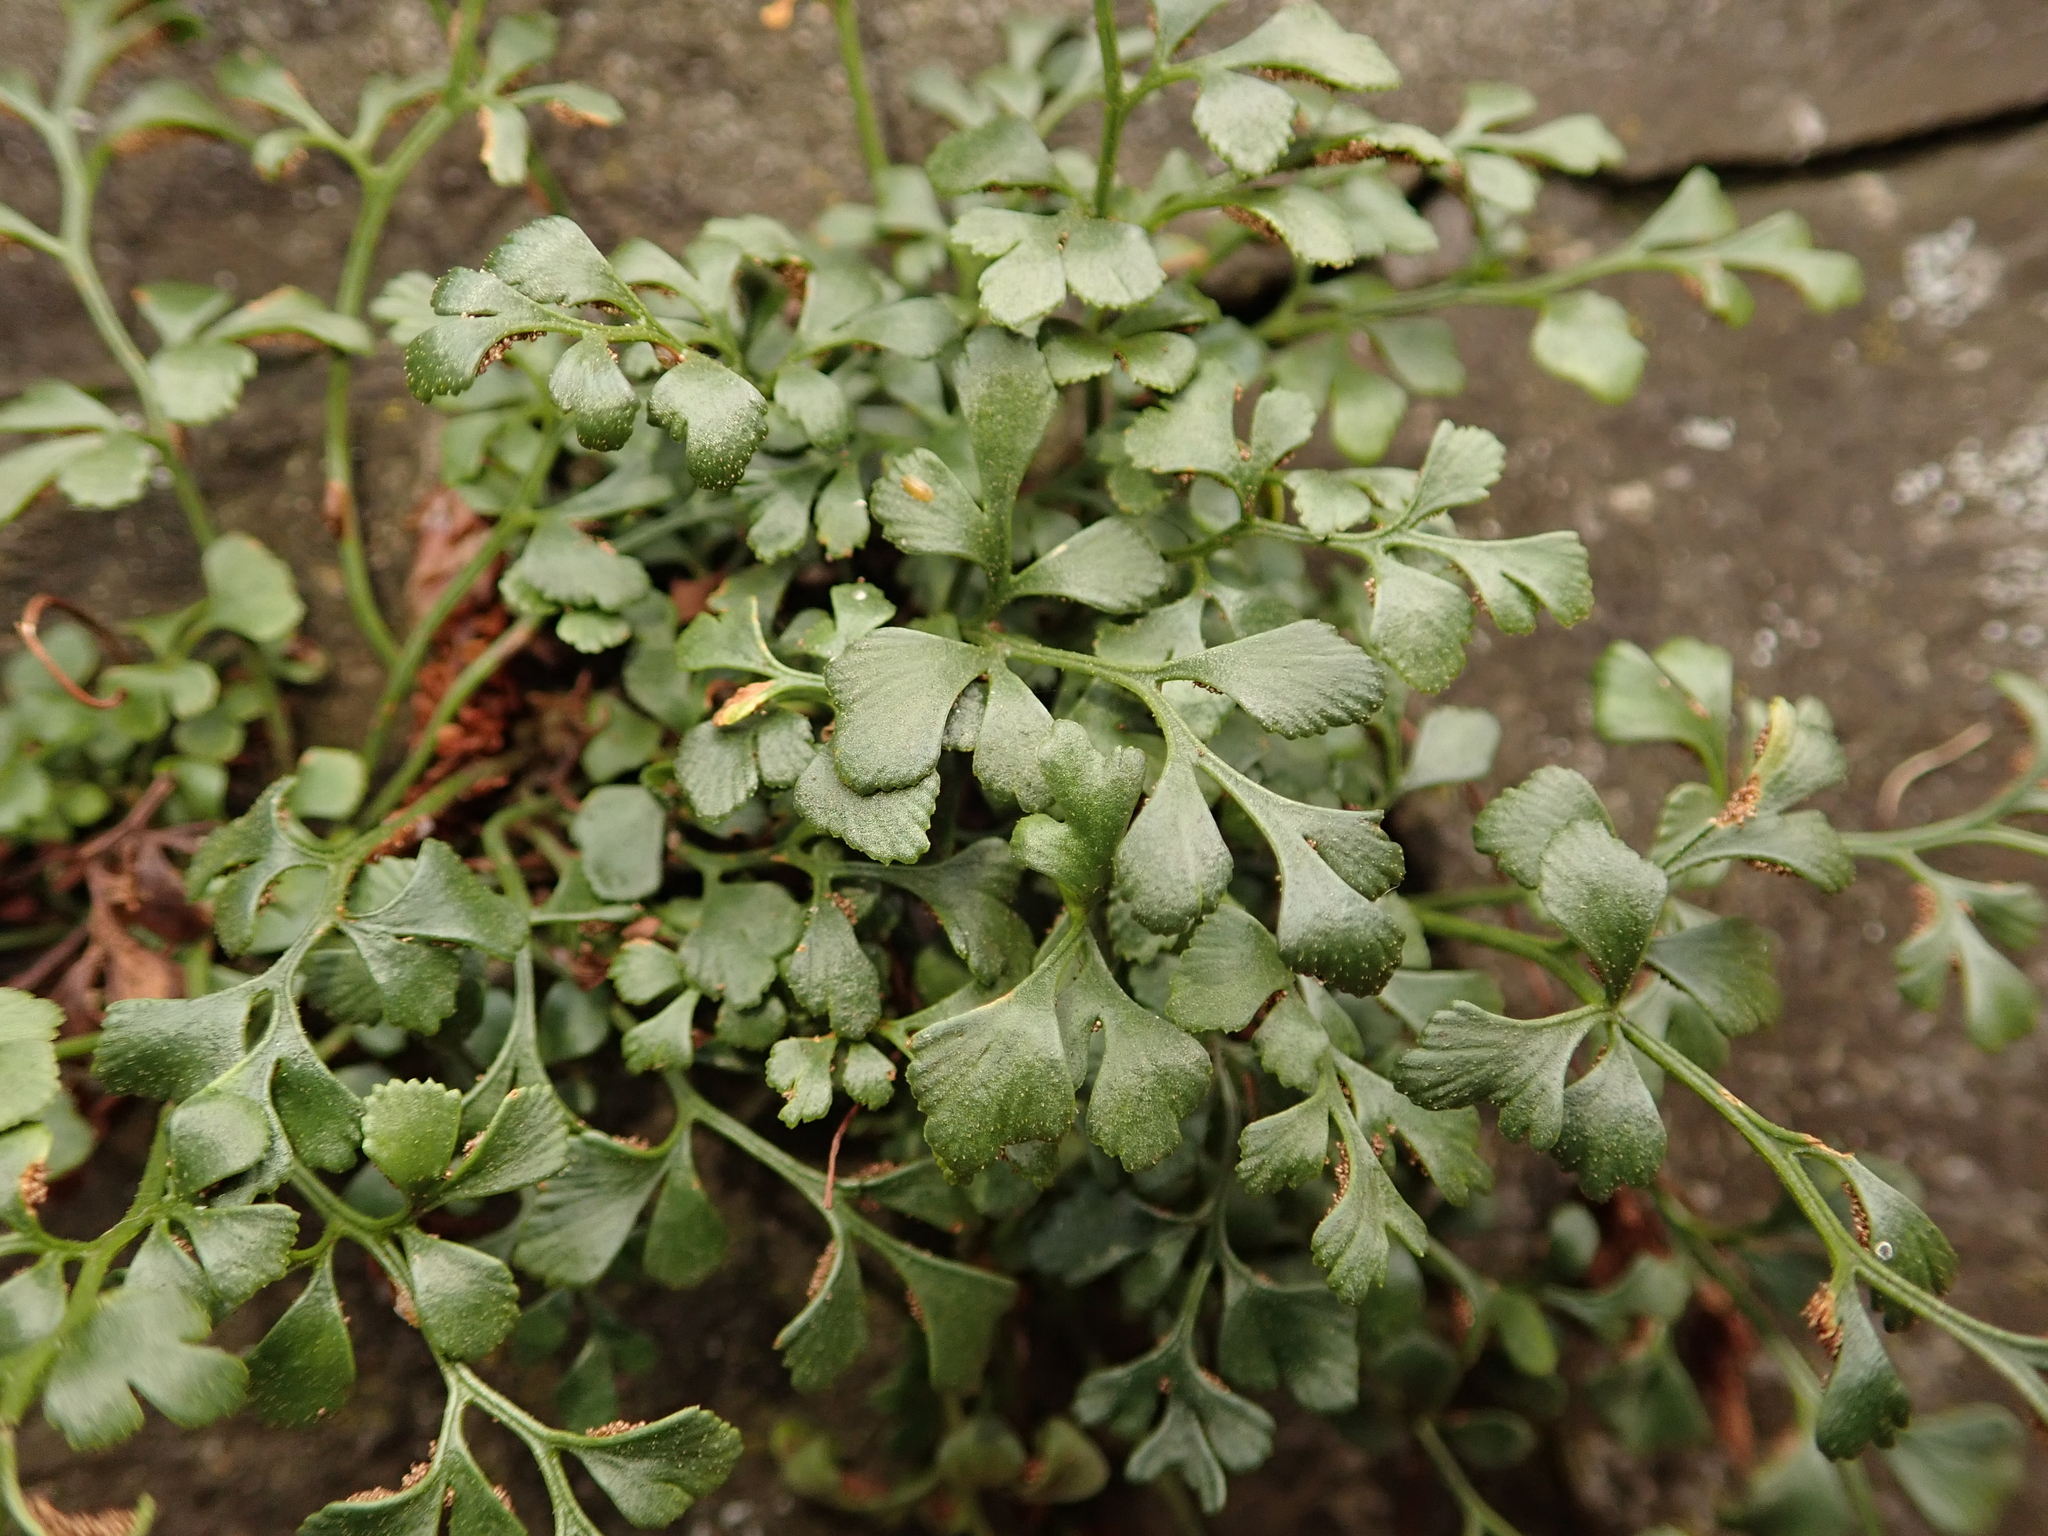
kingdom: Plantae
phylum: Tracheophyta
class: Polypodiopsida
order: Polypodiales
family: Aspleniaceae
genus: Asplenium
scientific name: Asplenium ruta-muraria
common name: Wall-rue
